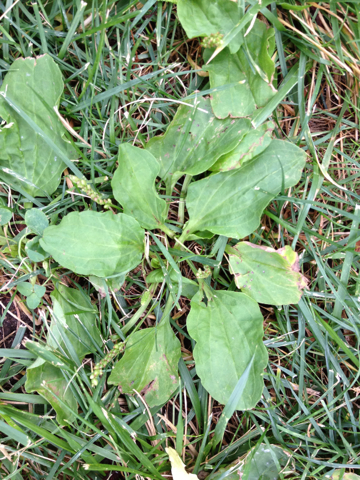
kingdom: Plantae
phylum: Tracheophyta
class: Magnoliopsida
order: Lamiales
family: Plantaginaceae
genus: Plantago
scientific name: Plantago major
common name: Common plantain
